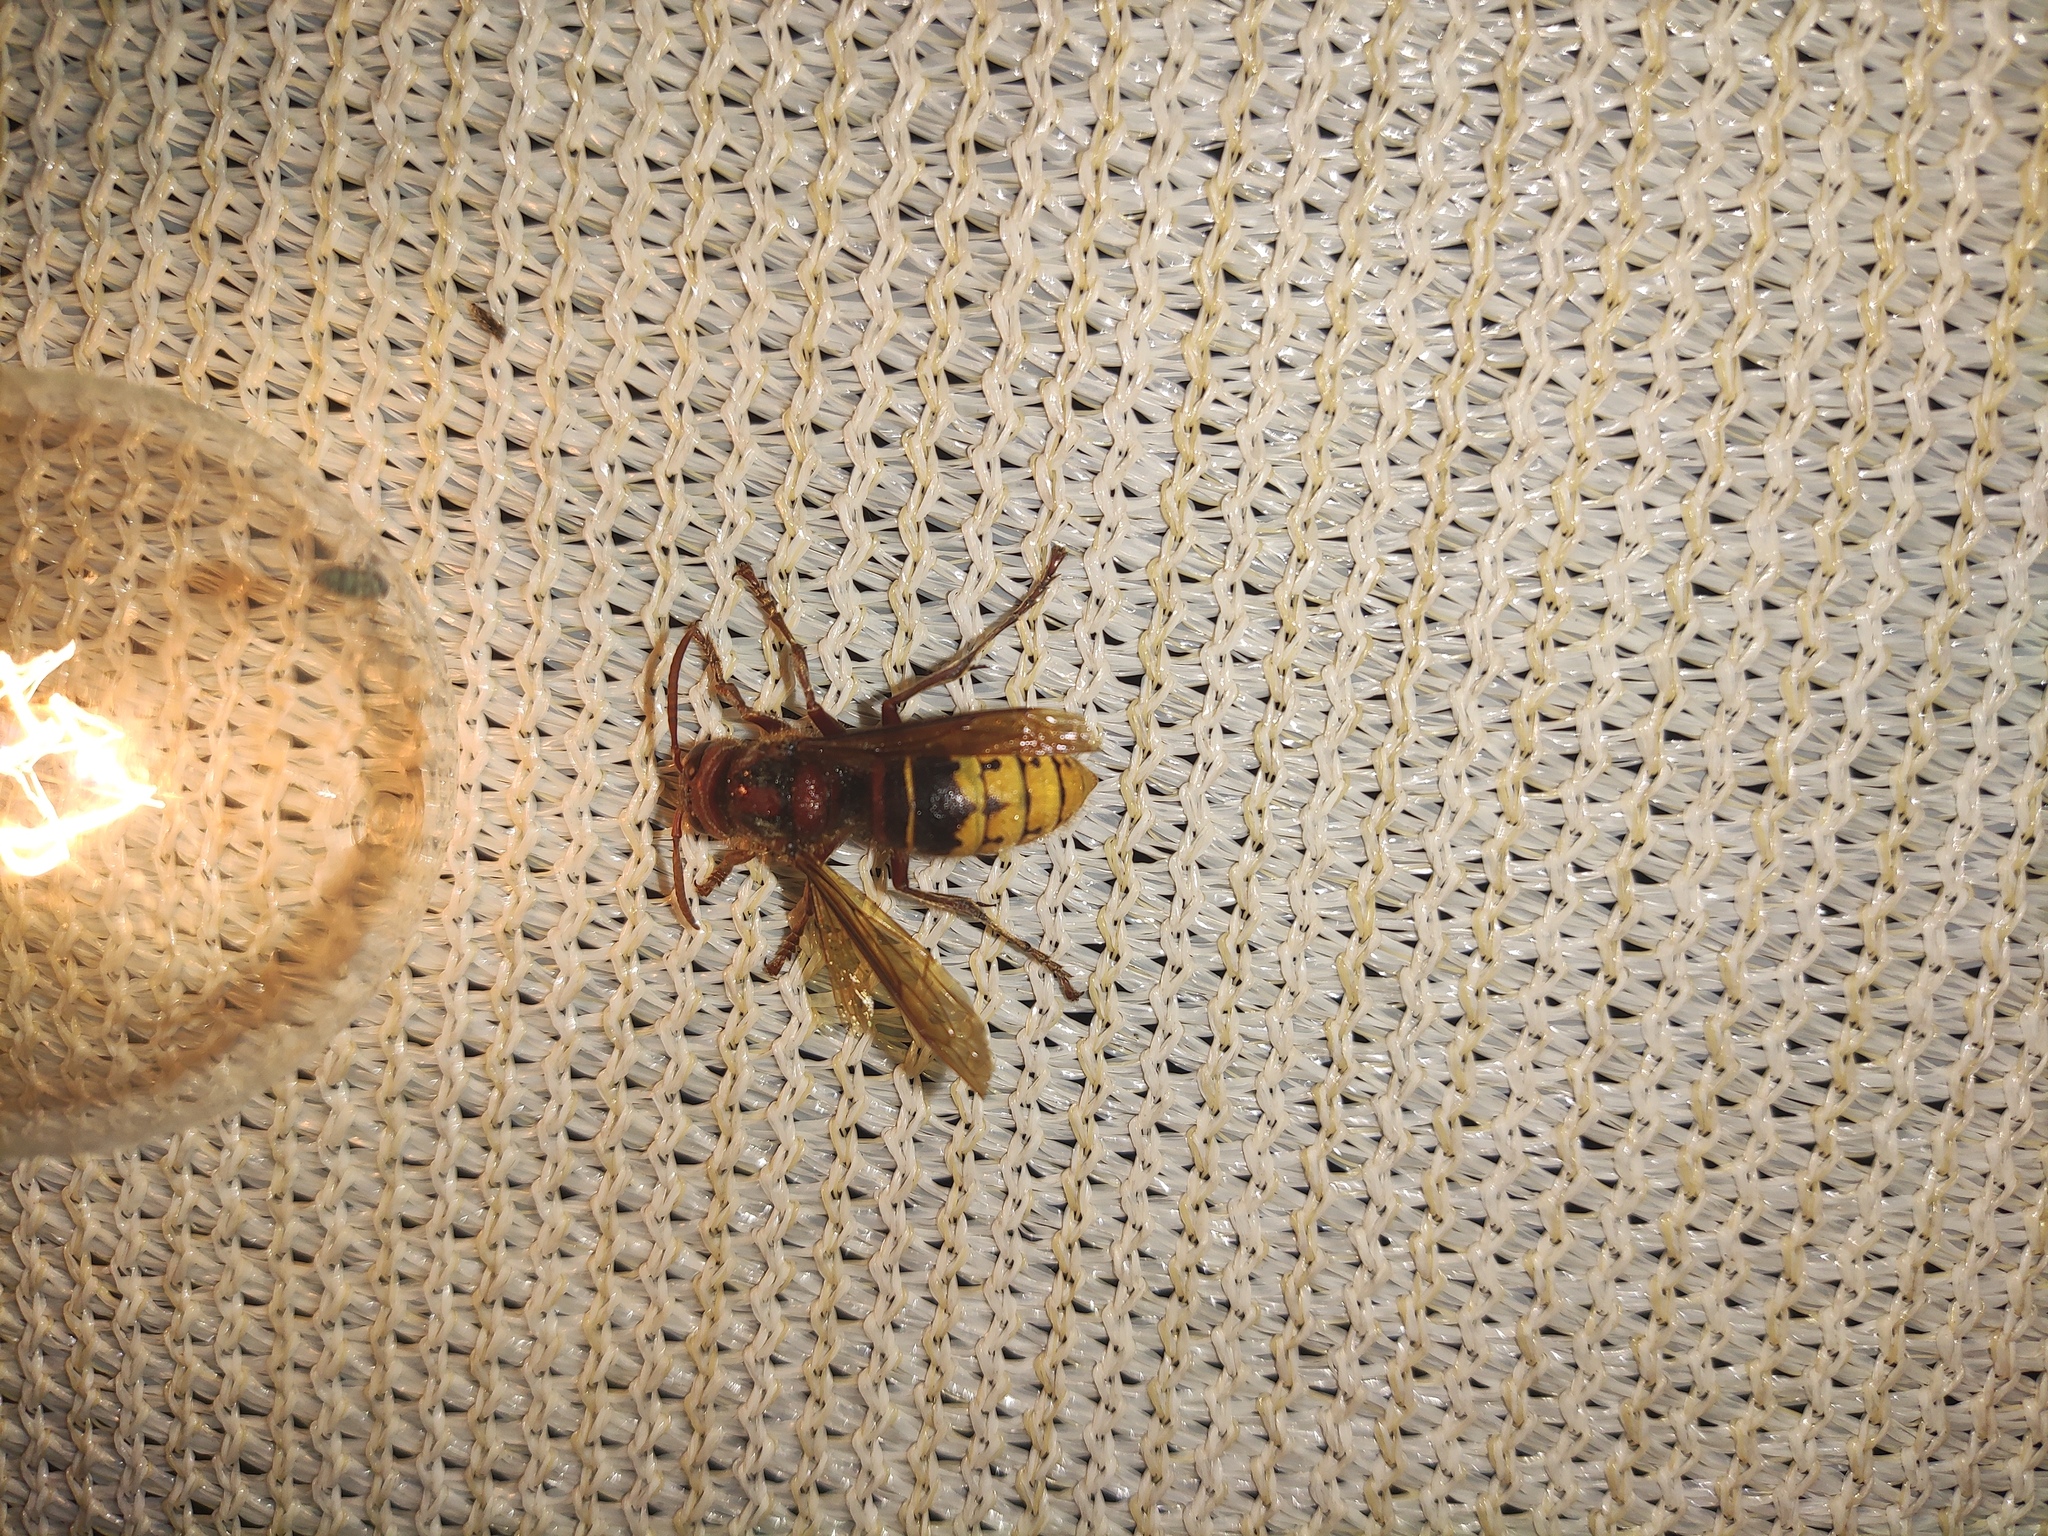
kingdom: Animalia
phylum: Arthropoda
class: Insecta
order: Hymenoptera
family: Vespidae
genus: Vespa
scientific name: Vespa crabro
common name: Hornet
